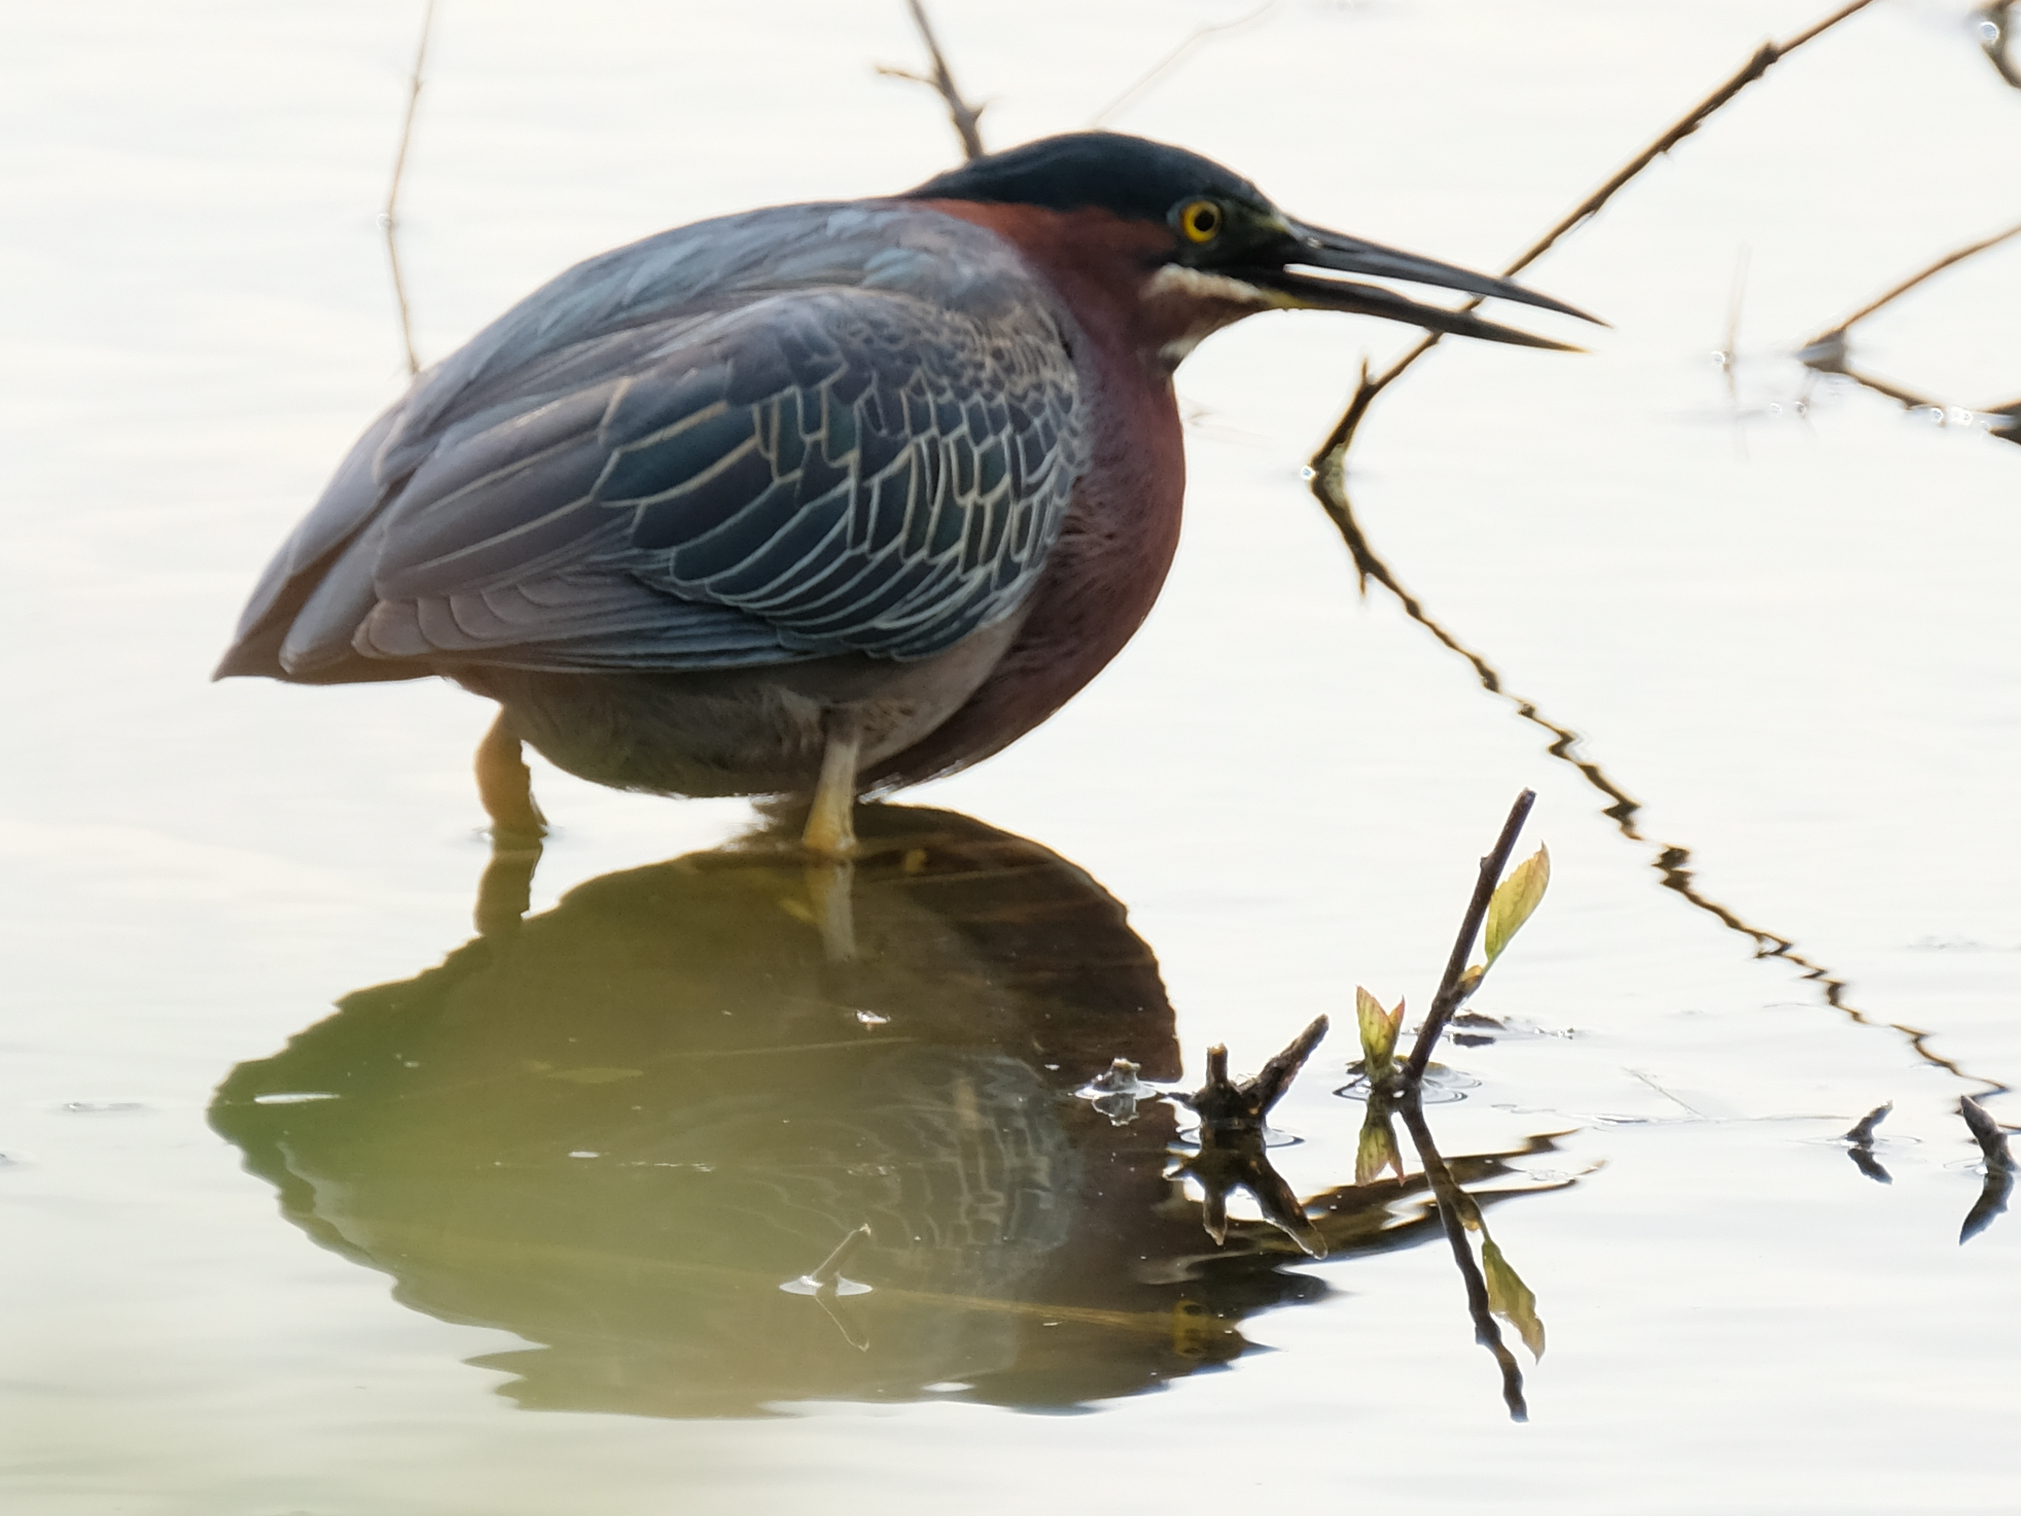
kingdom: Animalia
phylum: Chordata
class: Aves
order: Pelecaniformes
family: Ardeidae
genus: Butorides
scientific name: Butorides virescens
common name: Green heron
